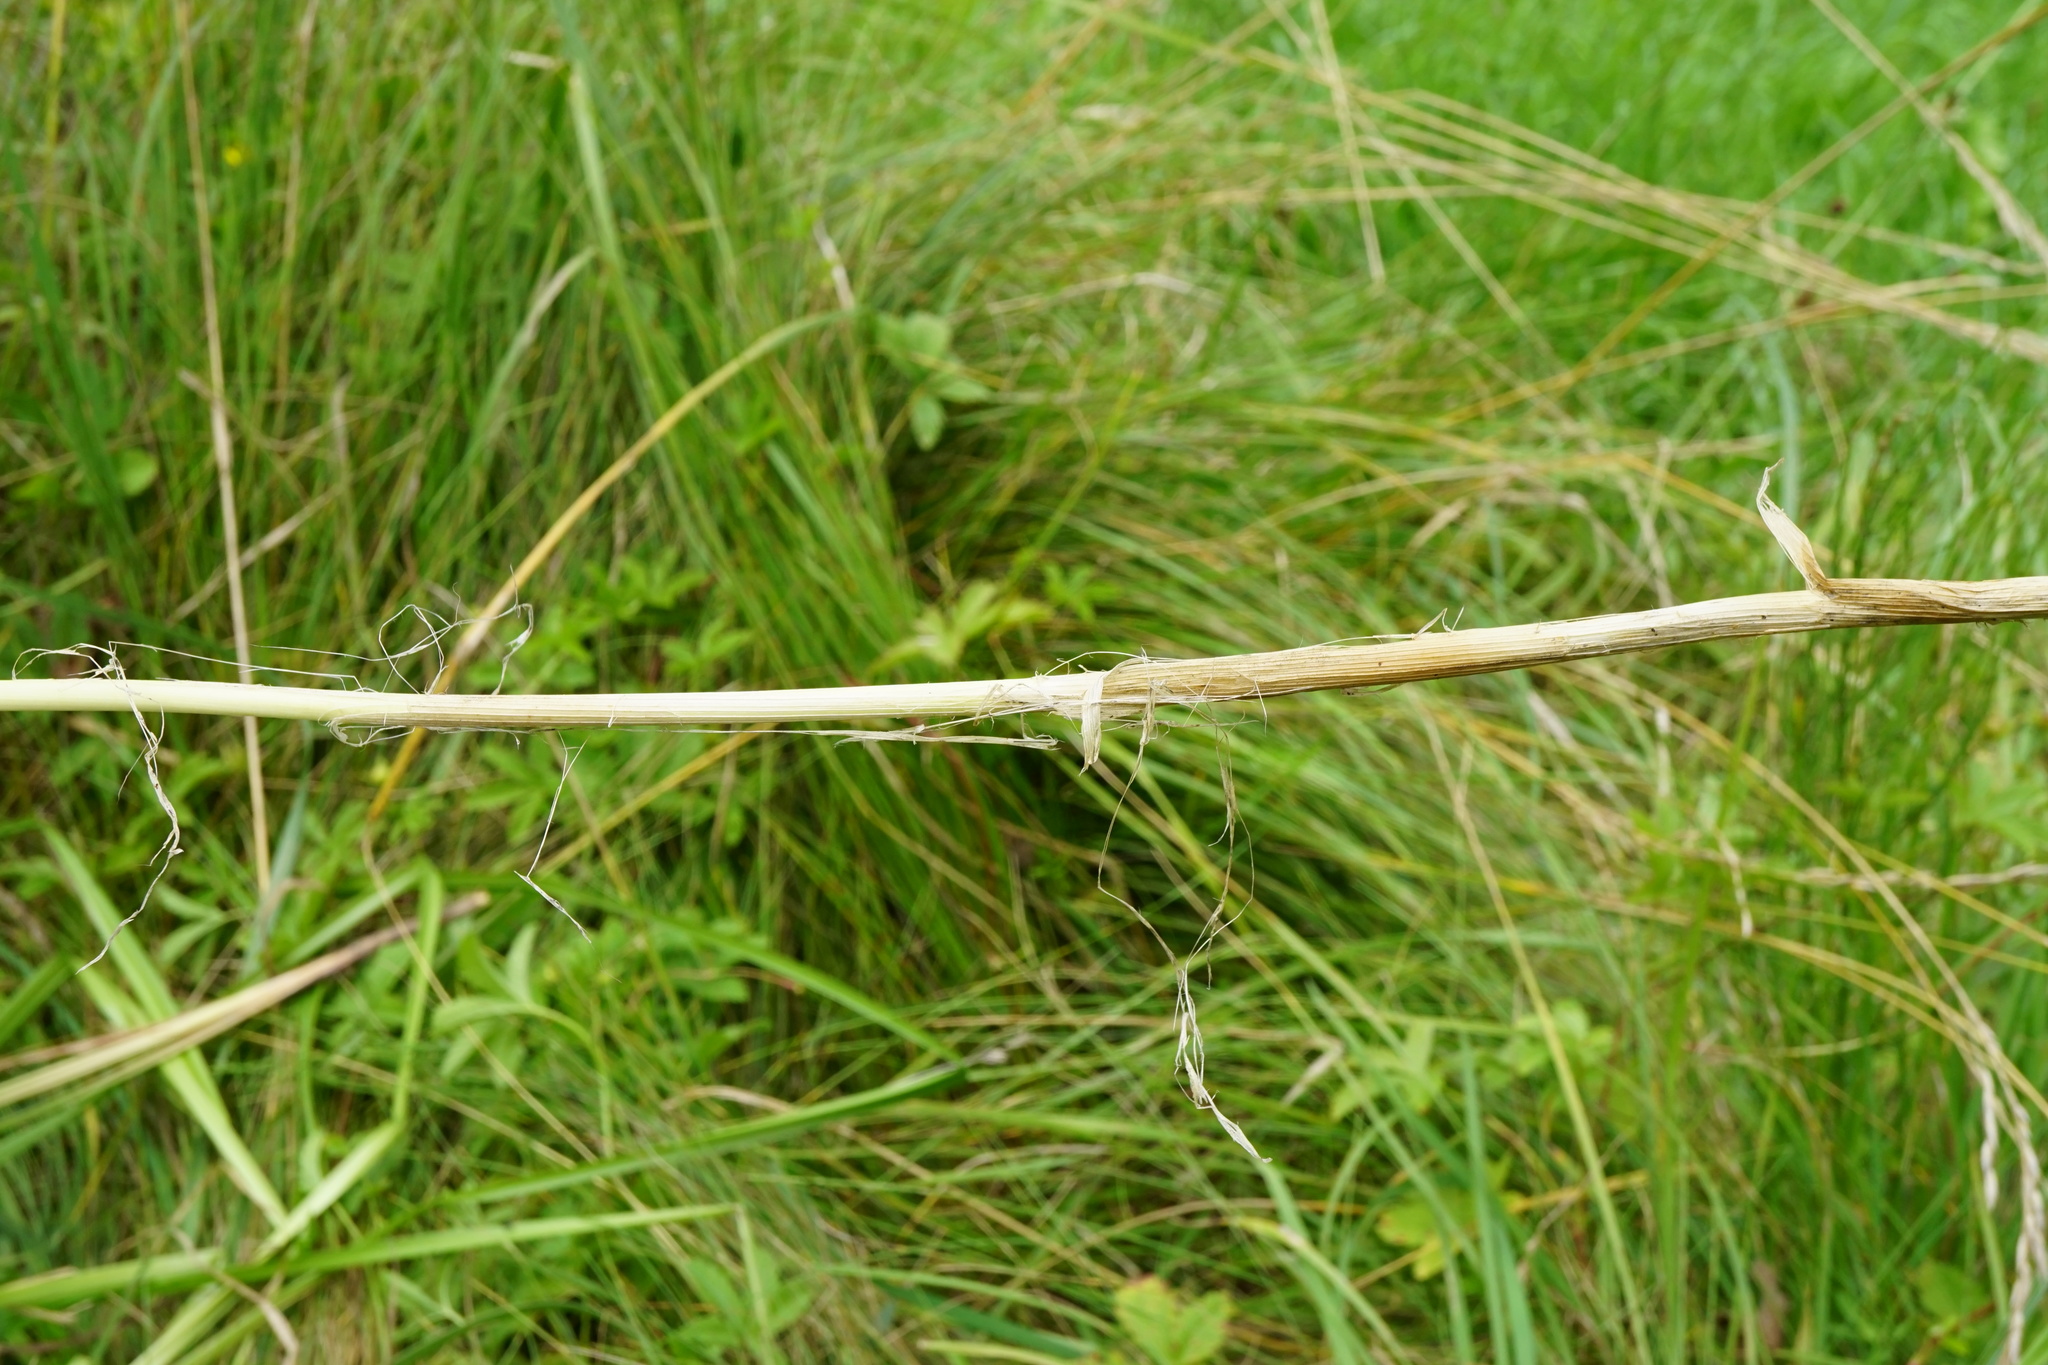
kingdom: Plantae
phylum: Tracheophyta
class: Liliopsida
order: Asparagales
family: Amaryllidaceae
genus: Allium
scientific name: Allium scorodoprasum
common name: Sand leek
